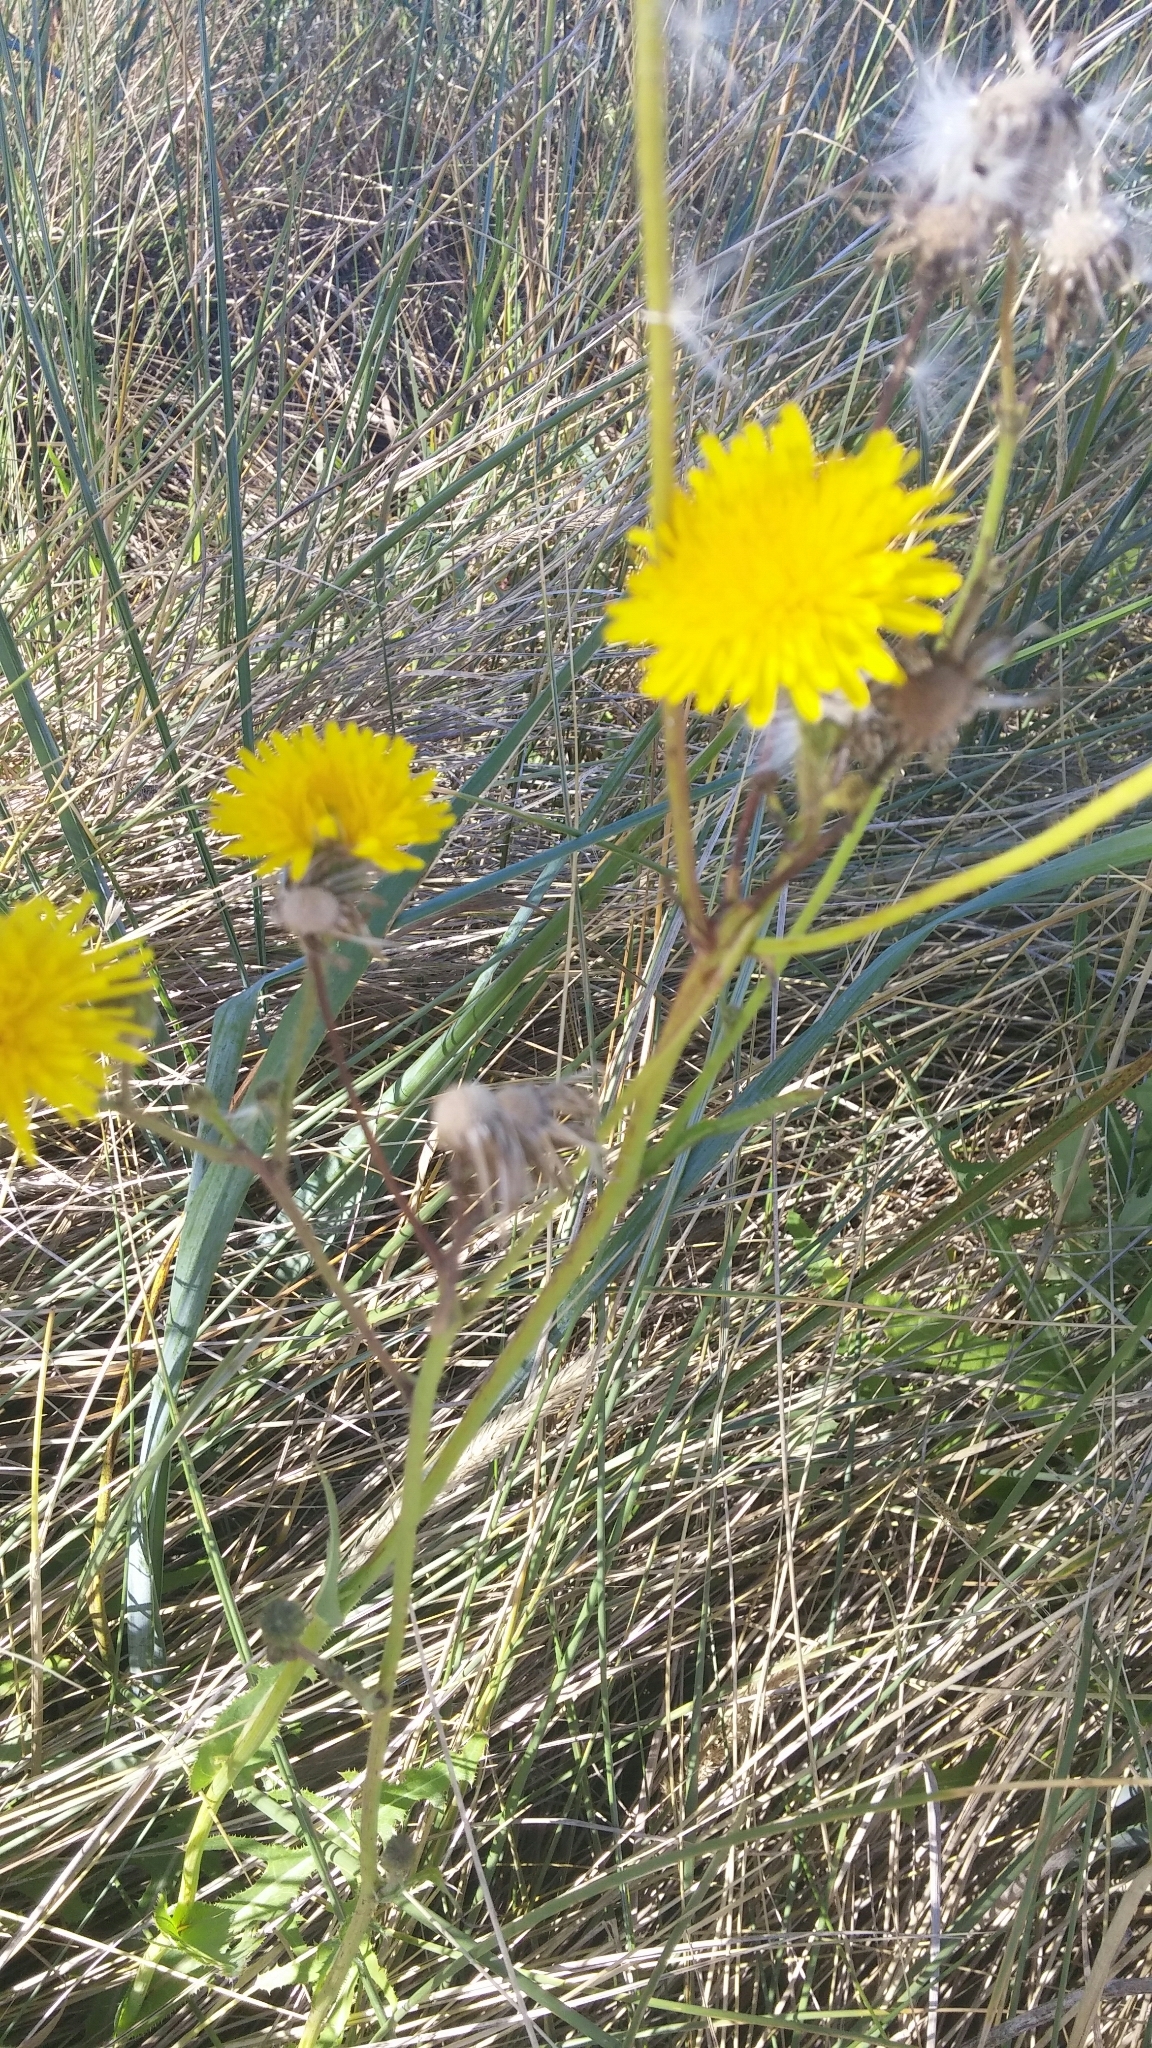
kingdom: Plantae
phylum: Tracheophyta
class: Magnoliopsida
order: Asterales
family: Asteraceae
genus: Hypochaeris
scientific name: Hypochaeris radicata
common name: Flatweed
